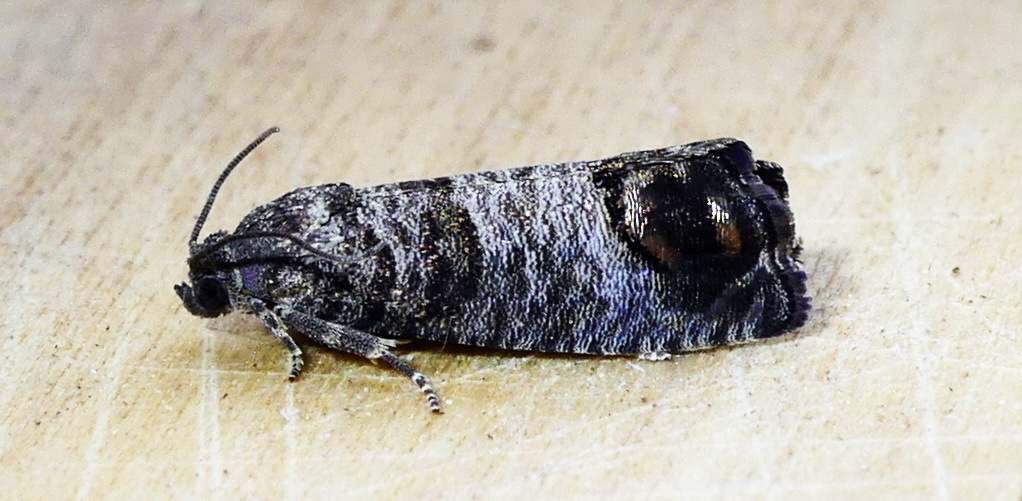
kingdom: Animalia
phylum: Arthropoda
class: Insecta
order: Lepidoptera
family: Tortricidae
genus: Cydia
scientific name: Cydia pomonella
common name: Codling moth
